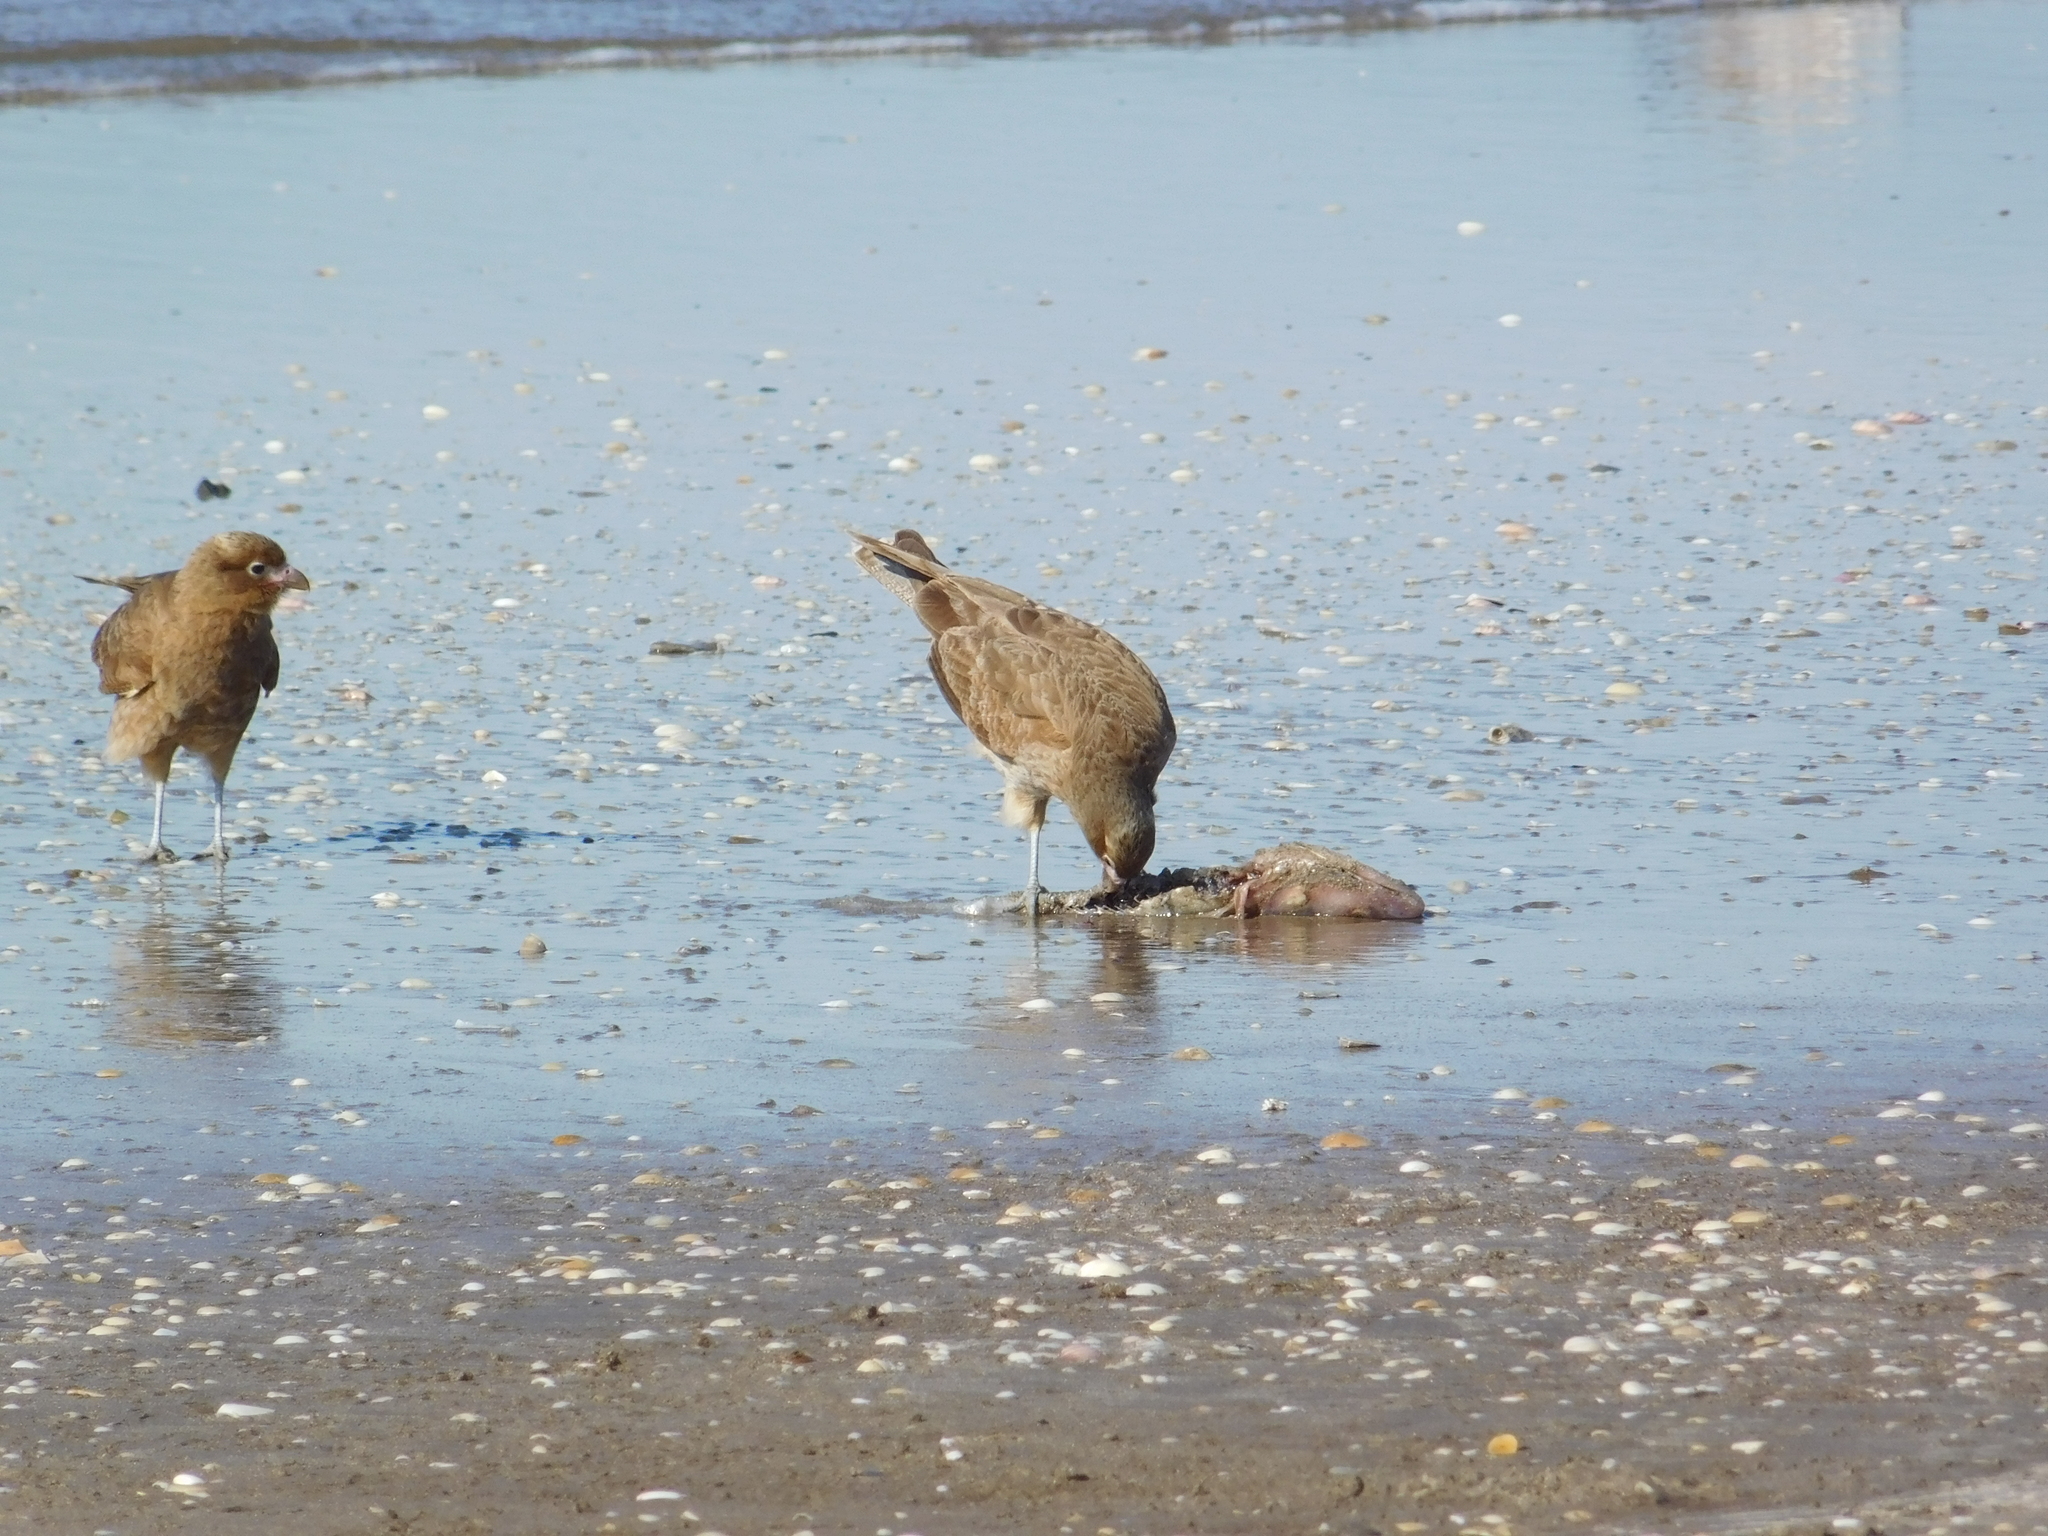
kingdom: Animalia
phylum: Chordata
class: Aves
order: Falconiformes
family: Falconidae
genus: Daptrius
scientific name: Daptrius
